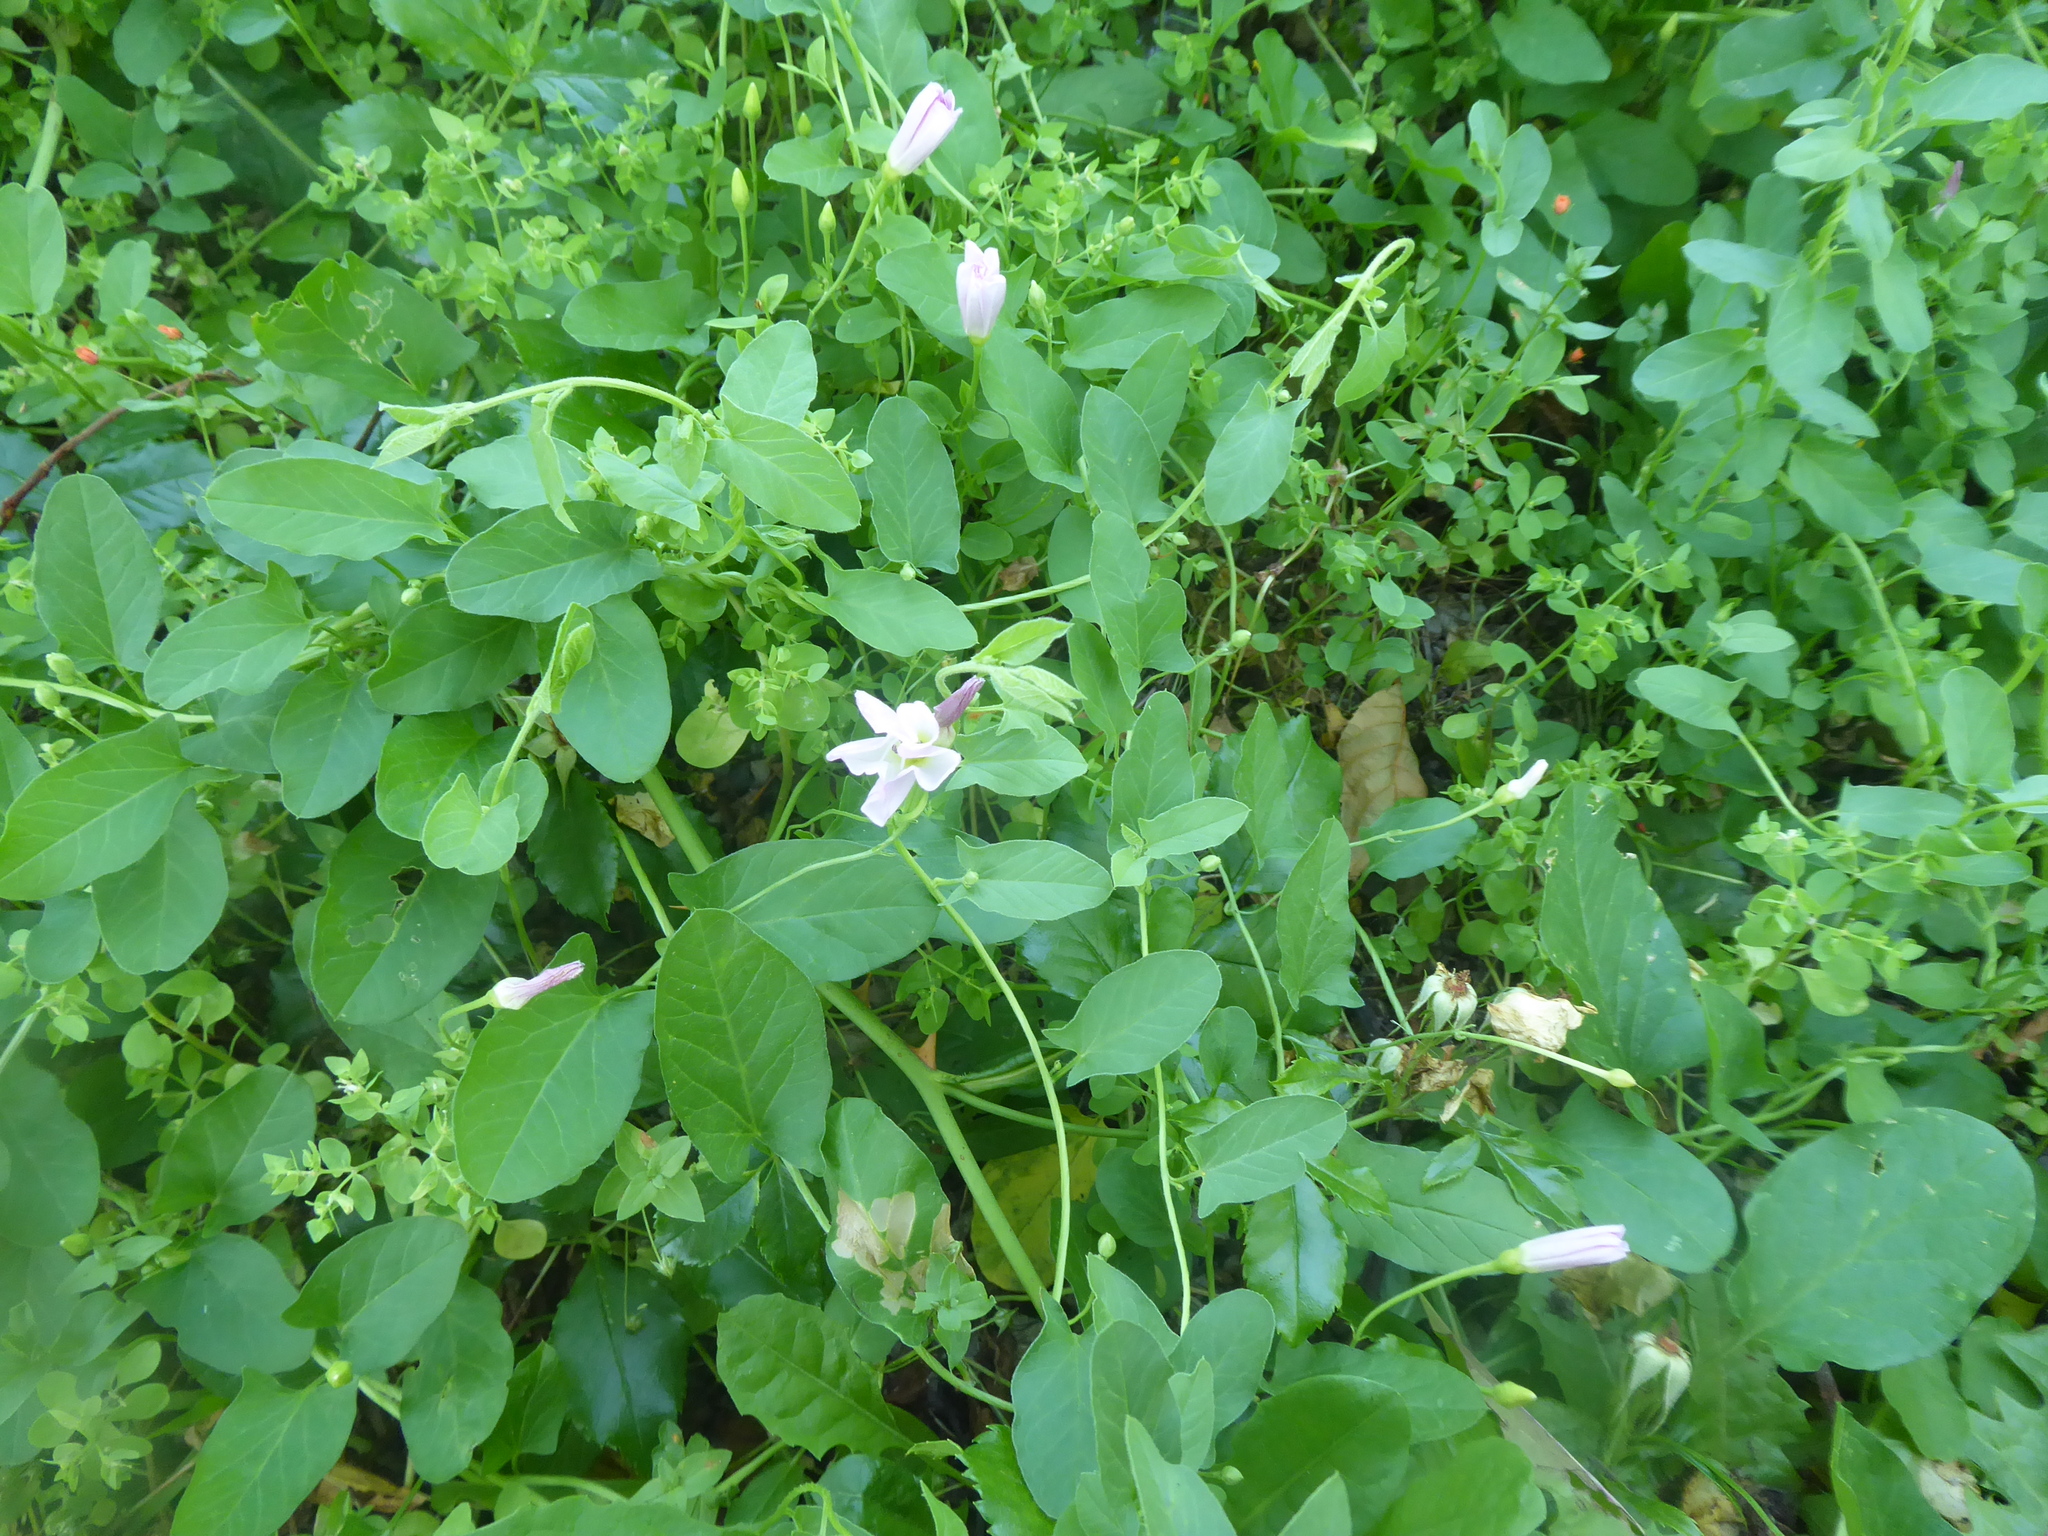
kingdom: Plantae
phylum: Tracheophyta
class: Magnoliopsida
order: Solanales
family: Convolvulaceae
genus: Convolvulus
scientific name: Convolvulus arvensis
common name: Field bindweed
